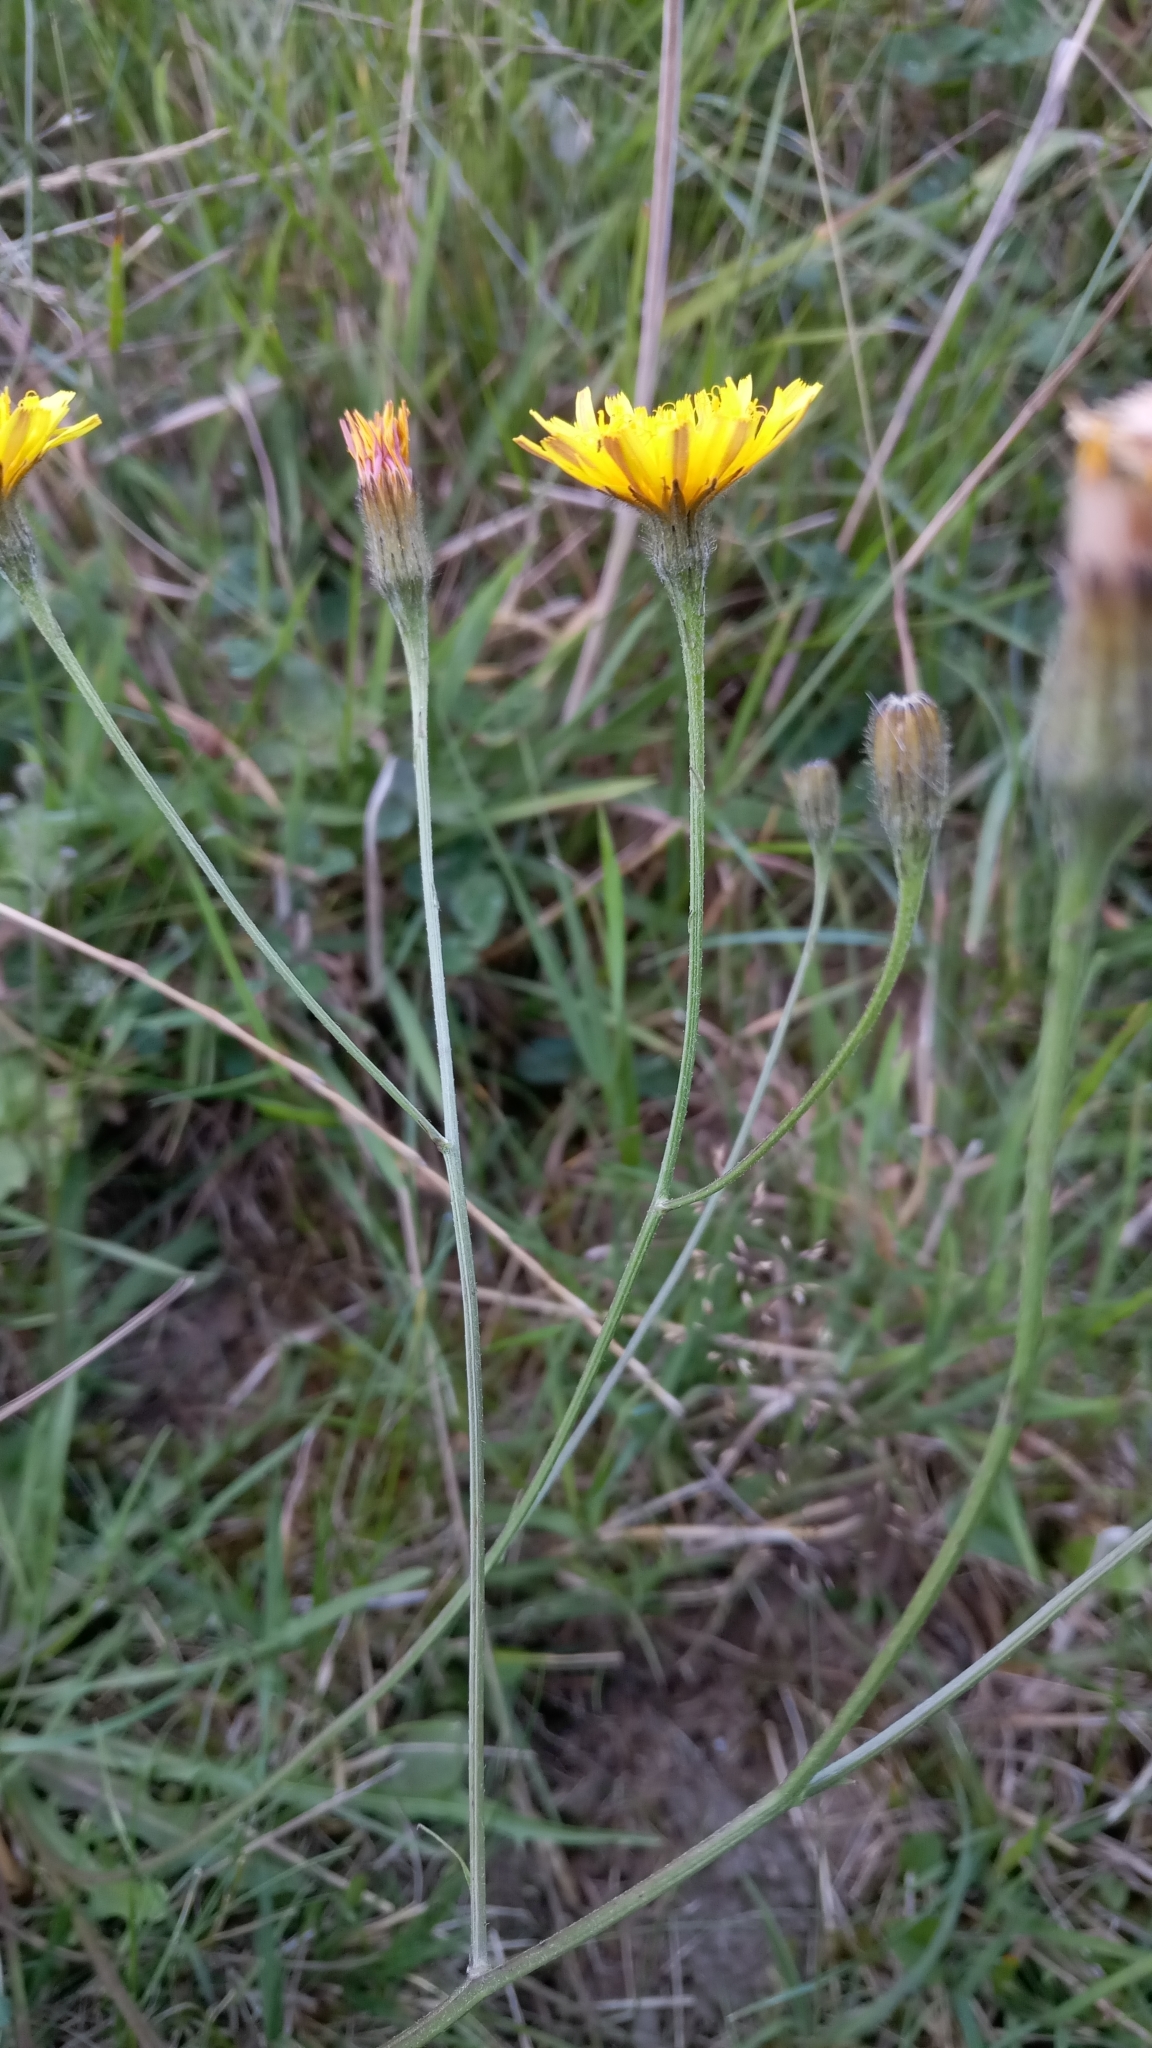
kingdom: Plantae
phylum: Tracheophyta
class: Magnoliopsida
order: Asterales
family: Asteraceae
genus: Scorzoneroides
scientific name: Scorzoneroides autumnalis
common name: Autumn hawkbit
